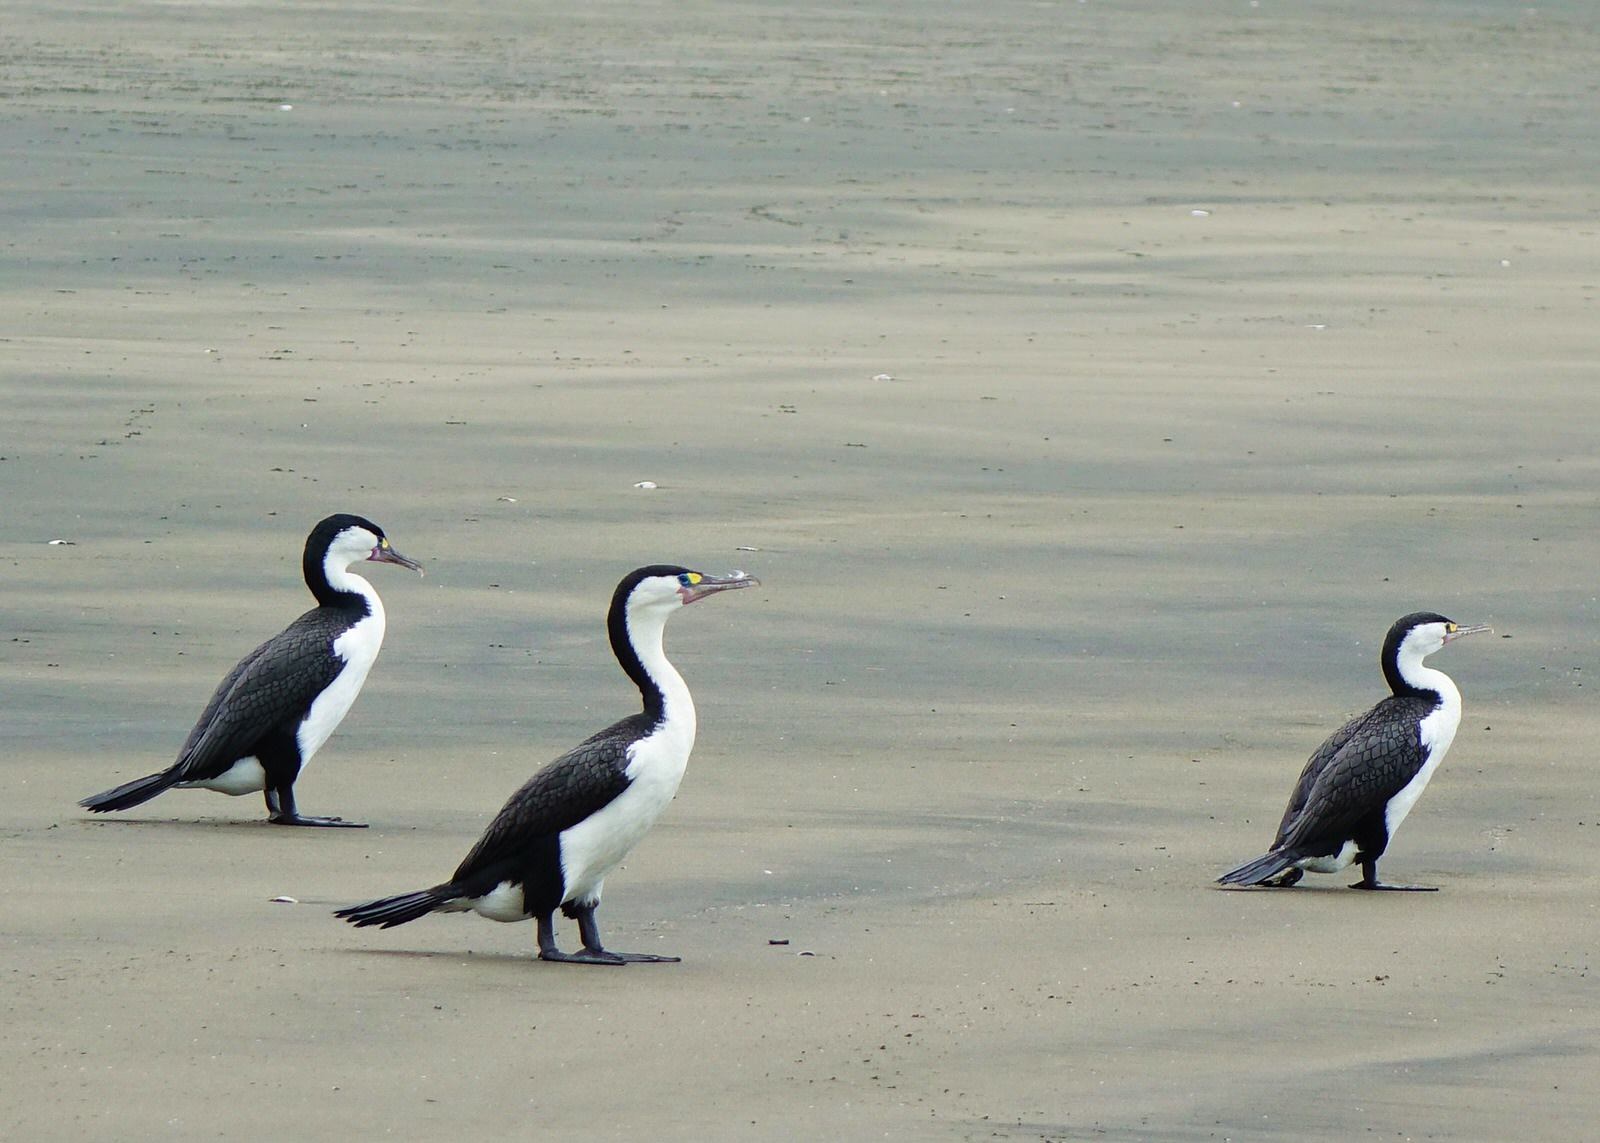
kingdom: Animalia
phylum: Chordata
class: Aves
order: Suliformes
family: Phalacrocoracidae
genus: Phalacrocorax
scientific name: Phalacrocorax varius
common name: Pied cormorant
